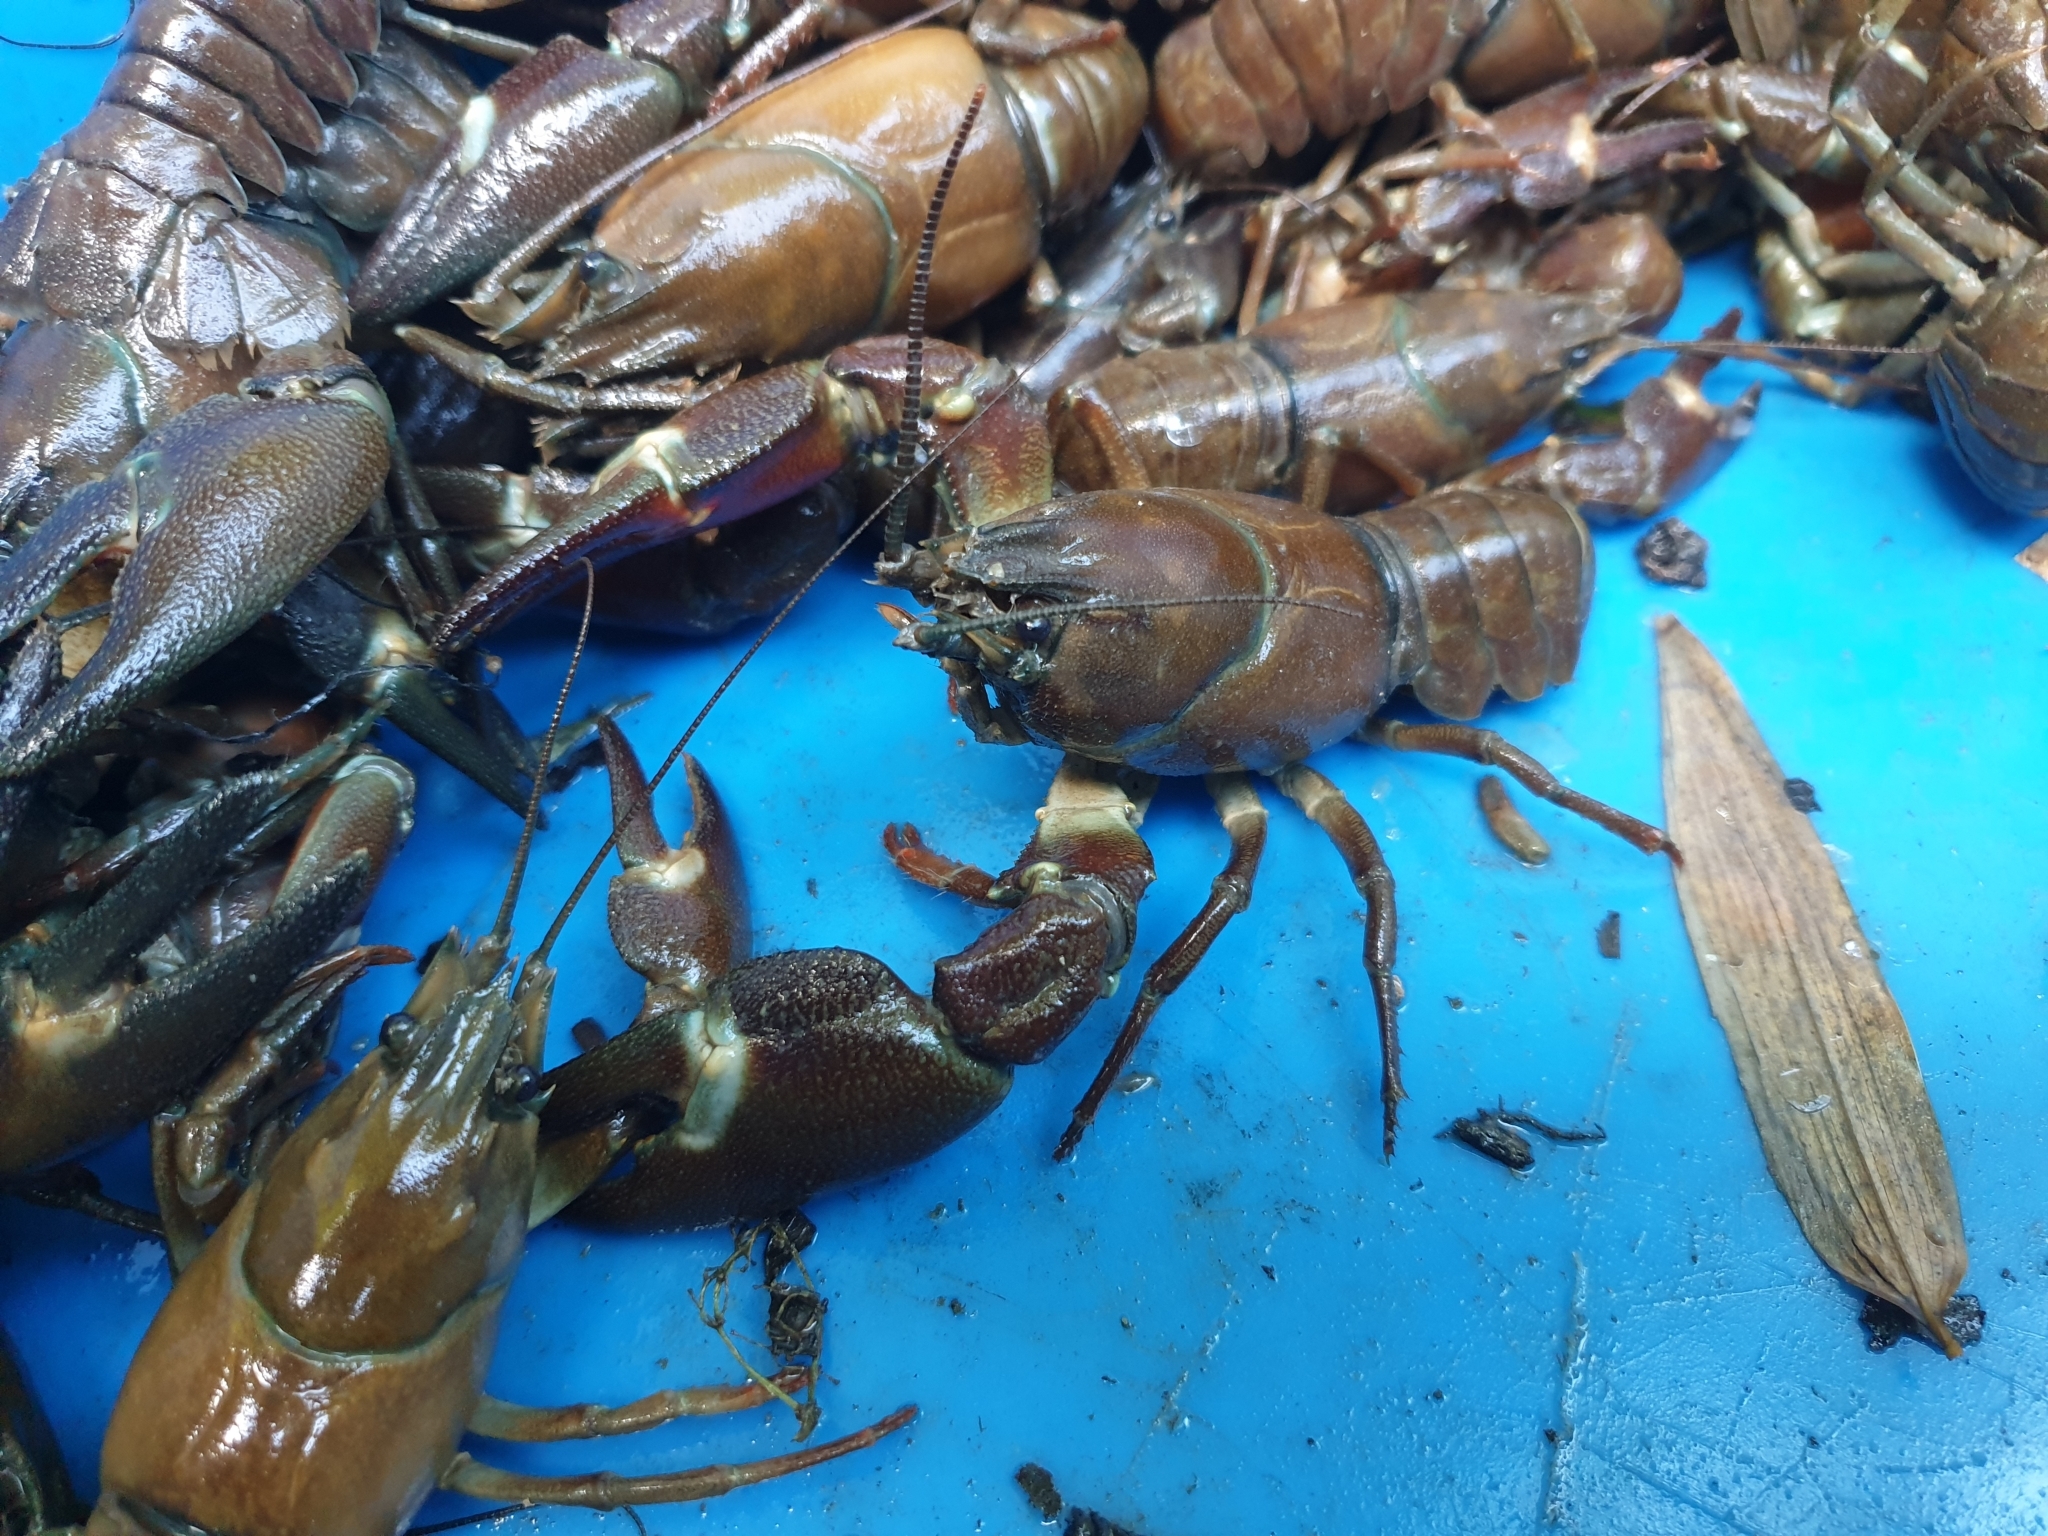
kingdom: Animalia
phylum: Arthropoda
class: Malacostraca
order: Decapoda
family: Astacidae
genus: Pacifastacus
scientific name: Pacifastacus leniusculus
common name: Signal crayfish
